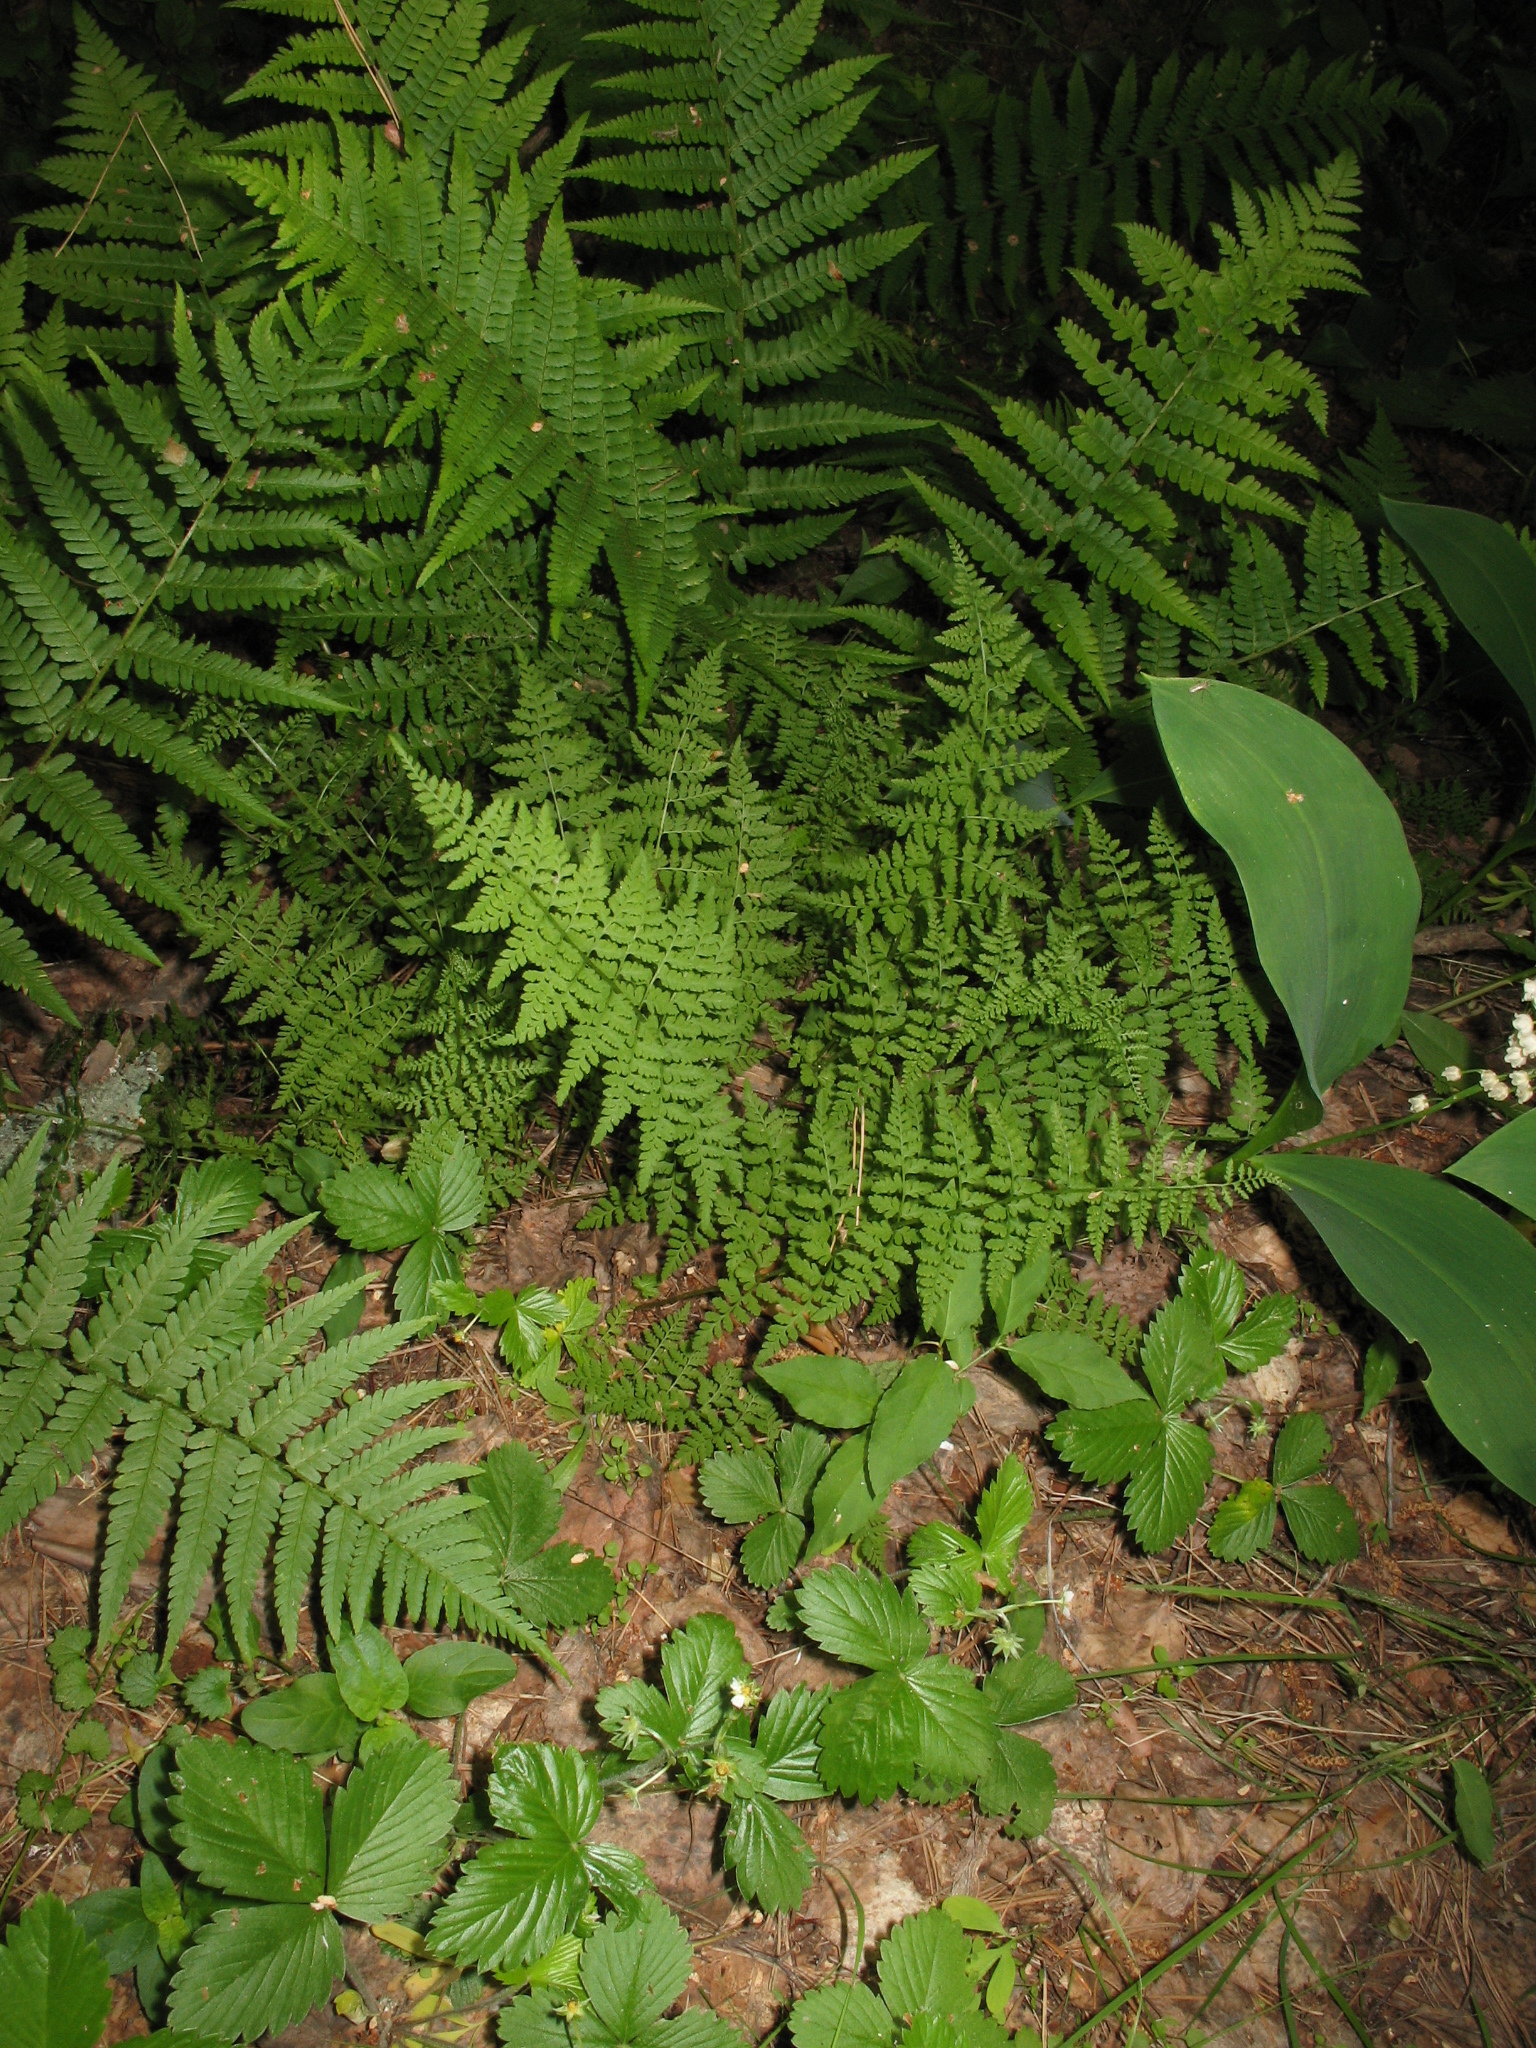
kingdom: Plantae
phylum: Tracheophyta
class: Polypodiopsida
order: Polypodiales
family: Cystopteridaceae
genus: Cystopteris
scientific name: Cystopteris fragilis
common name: Brittle bladder fern
